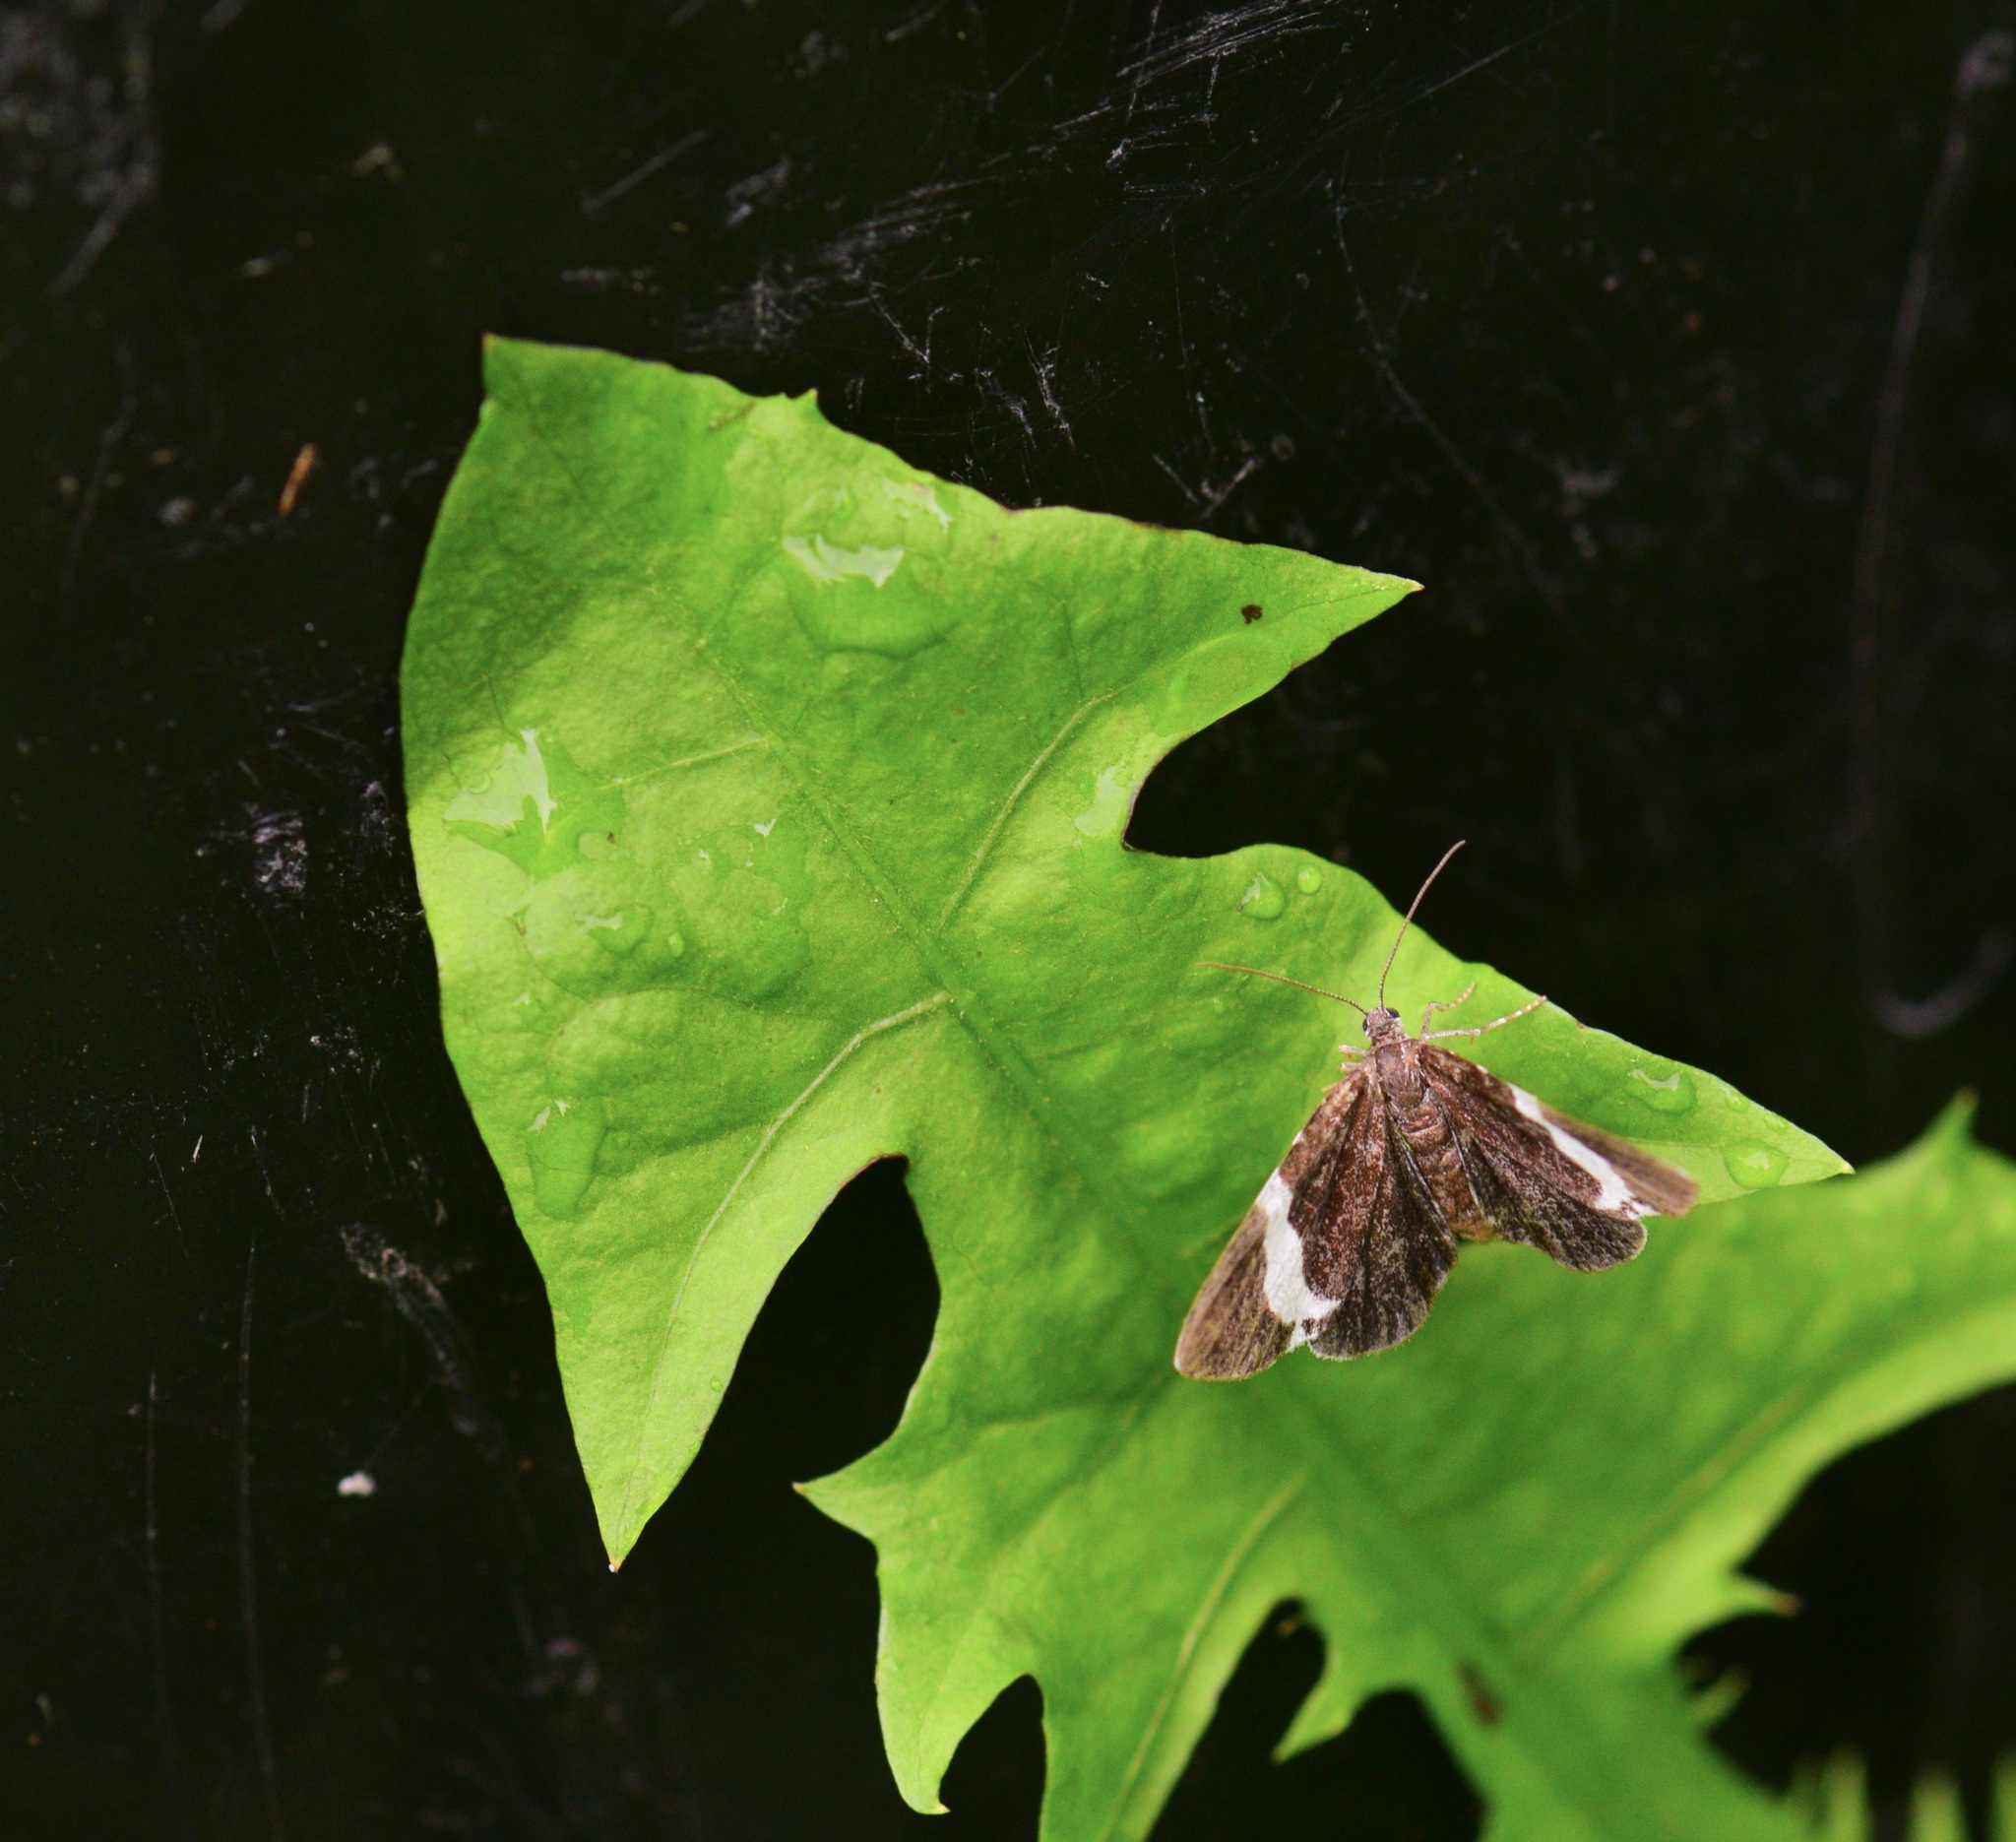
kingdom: Animalia
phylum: Arthropoda
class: Insecta
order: Lepidoptera
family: Geometridae
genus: Trichodezia
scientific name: Trichodezia albovittata
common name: White striped black
